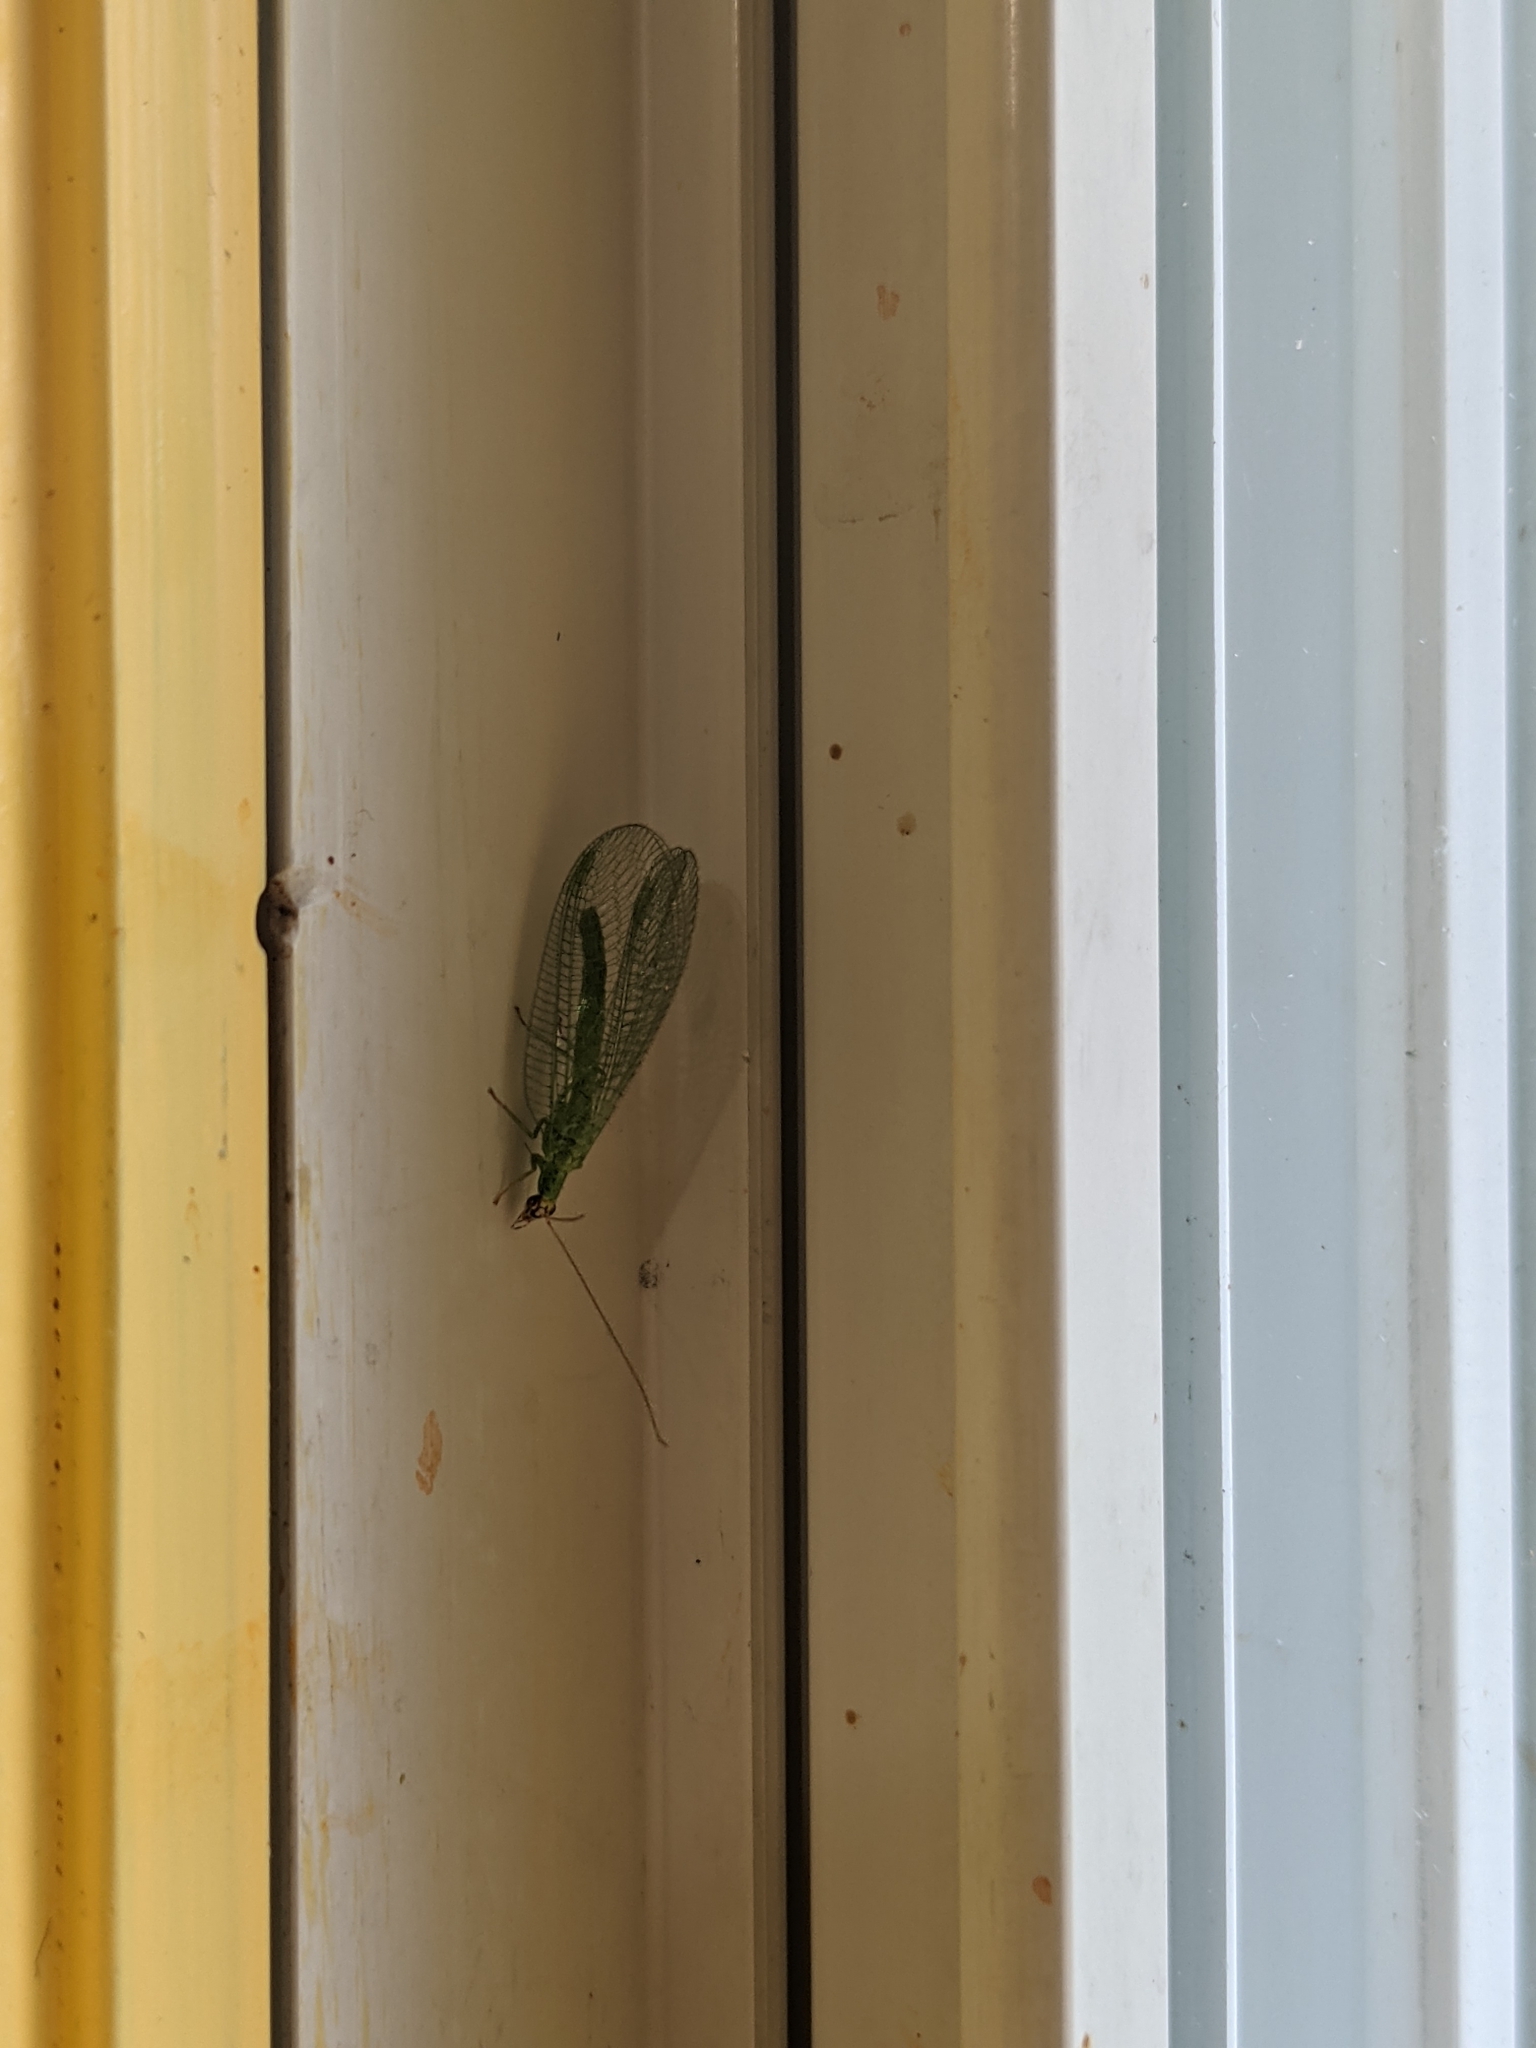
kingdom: Animalia
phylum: Arthropoda
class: Insecta
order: Neuroptera
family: Chrysopidae
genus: Chrysopa
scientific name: Chrysopa oculata
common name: Golden-eyed lacewing
